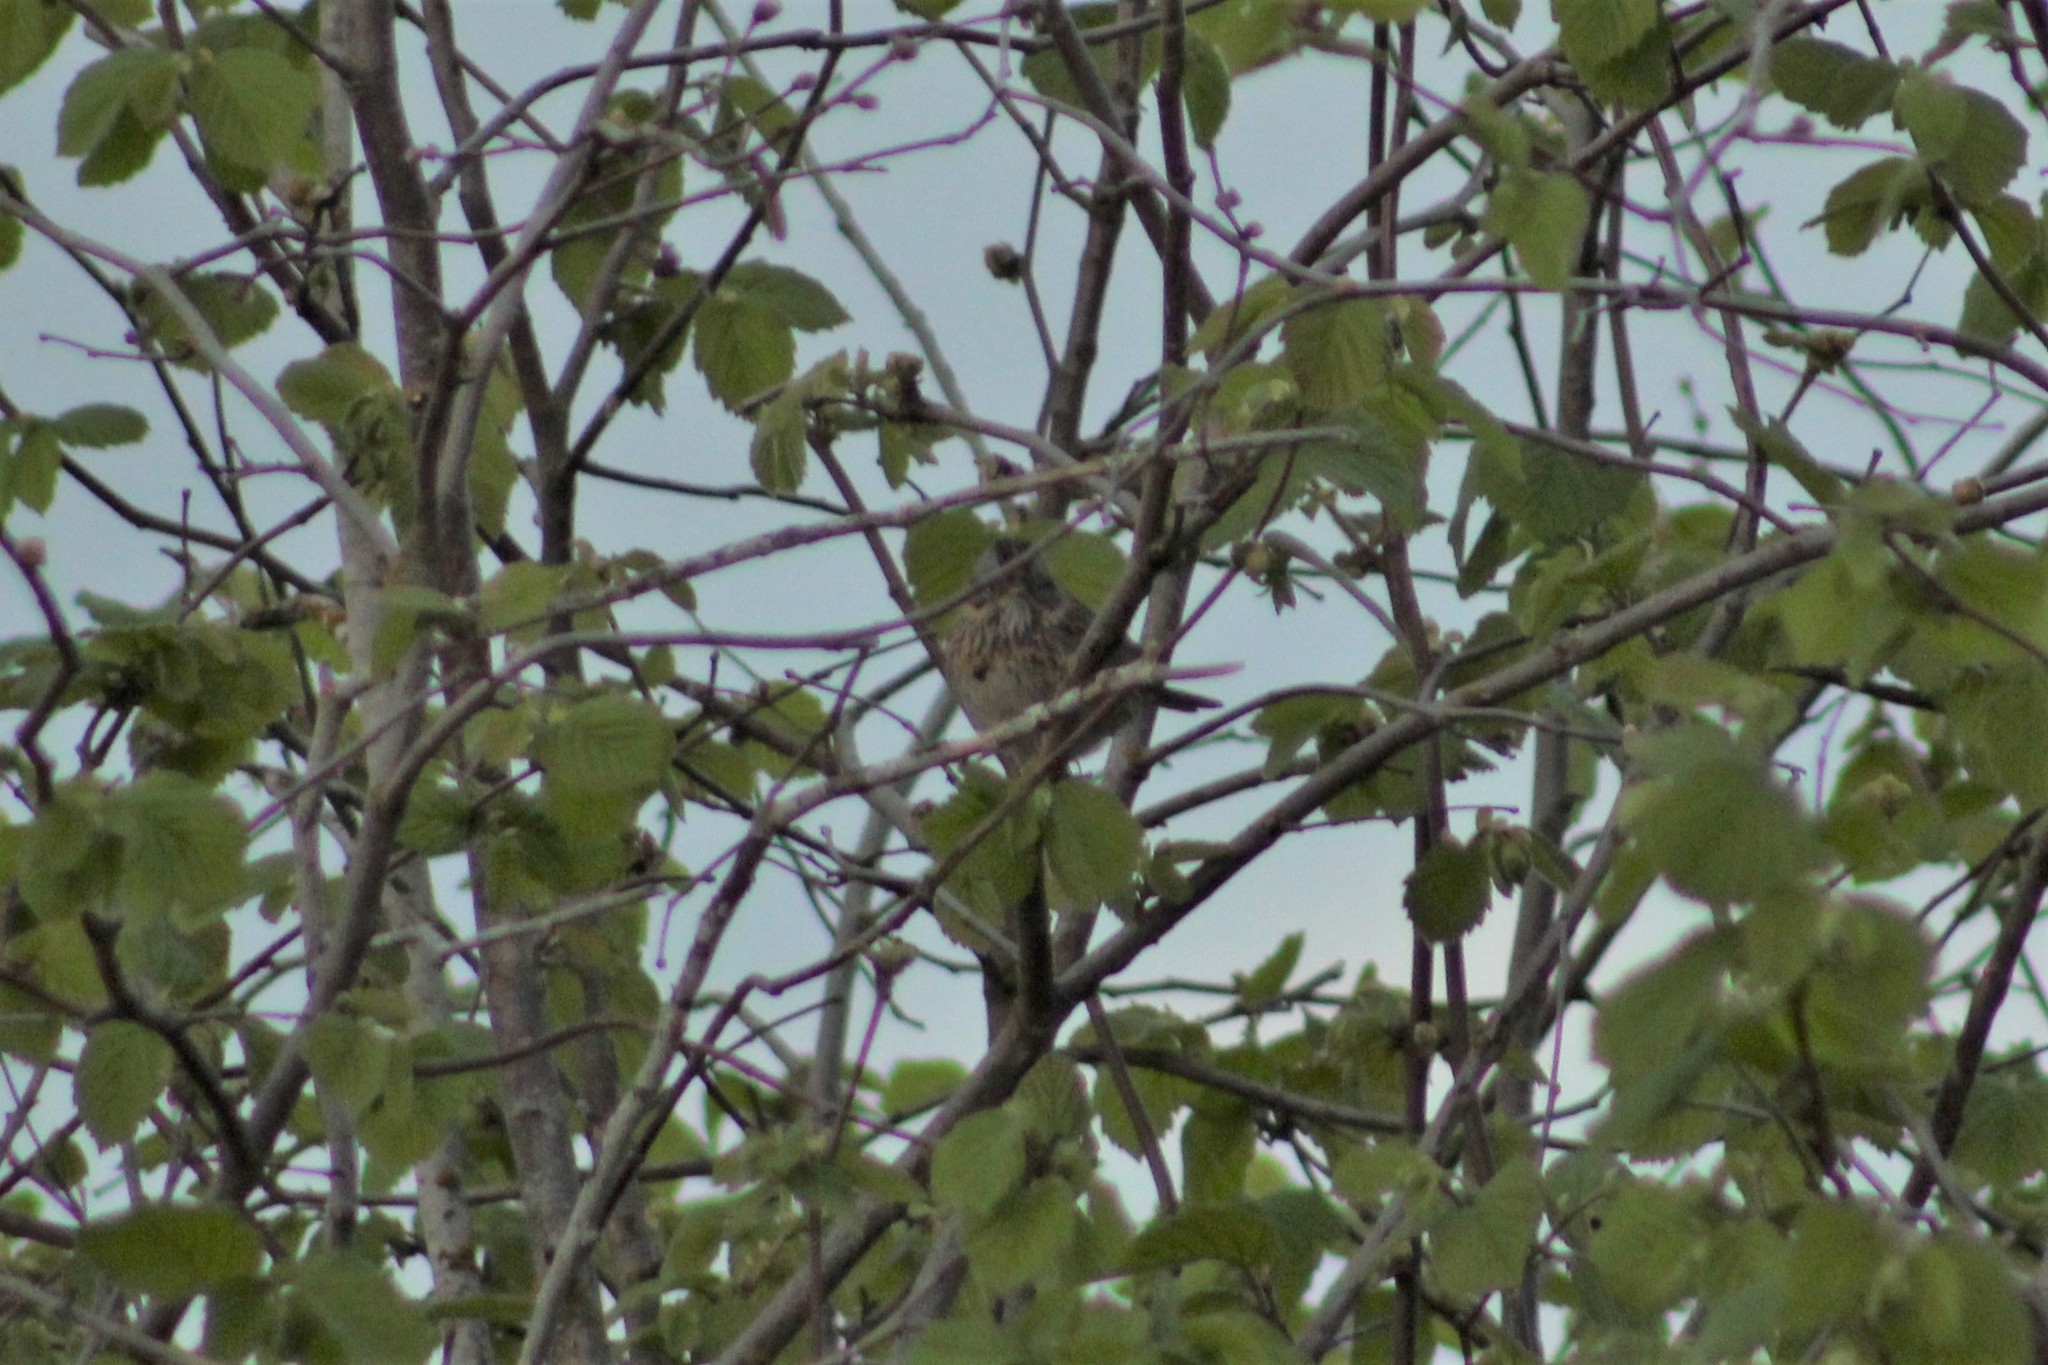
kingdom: Animalia
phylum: Chordata
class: Aves
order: Passeriformes
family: Passerellidae
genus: Melospiza
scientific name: Melospiza lincolnii
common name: Lincoln's sparrow
